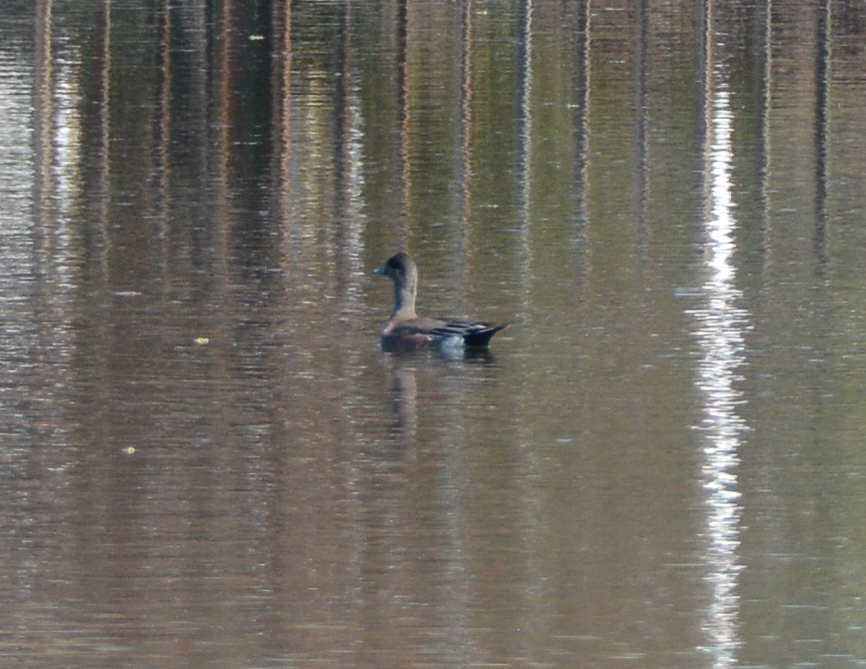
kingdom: Animalia
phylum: Chordata
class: Aves
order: Anseriformes
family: Anatidae
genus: Mareca
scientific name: Mareca americana
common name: American wigeon
